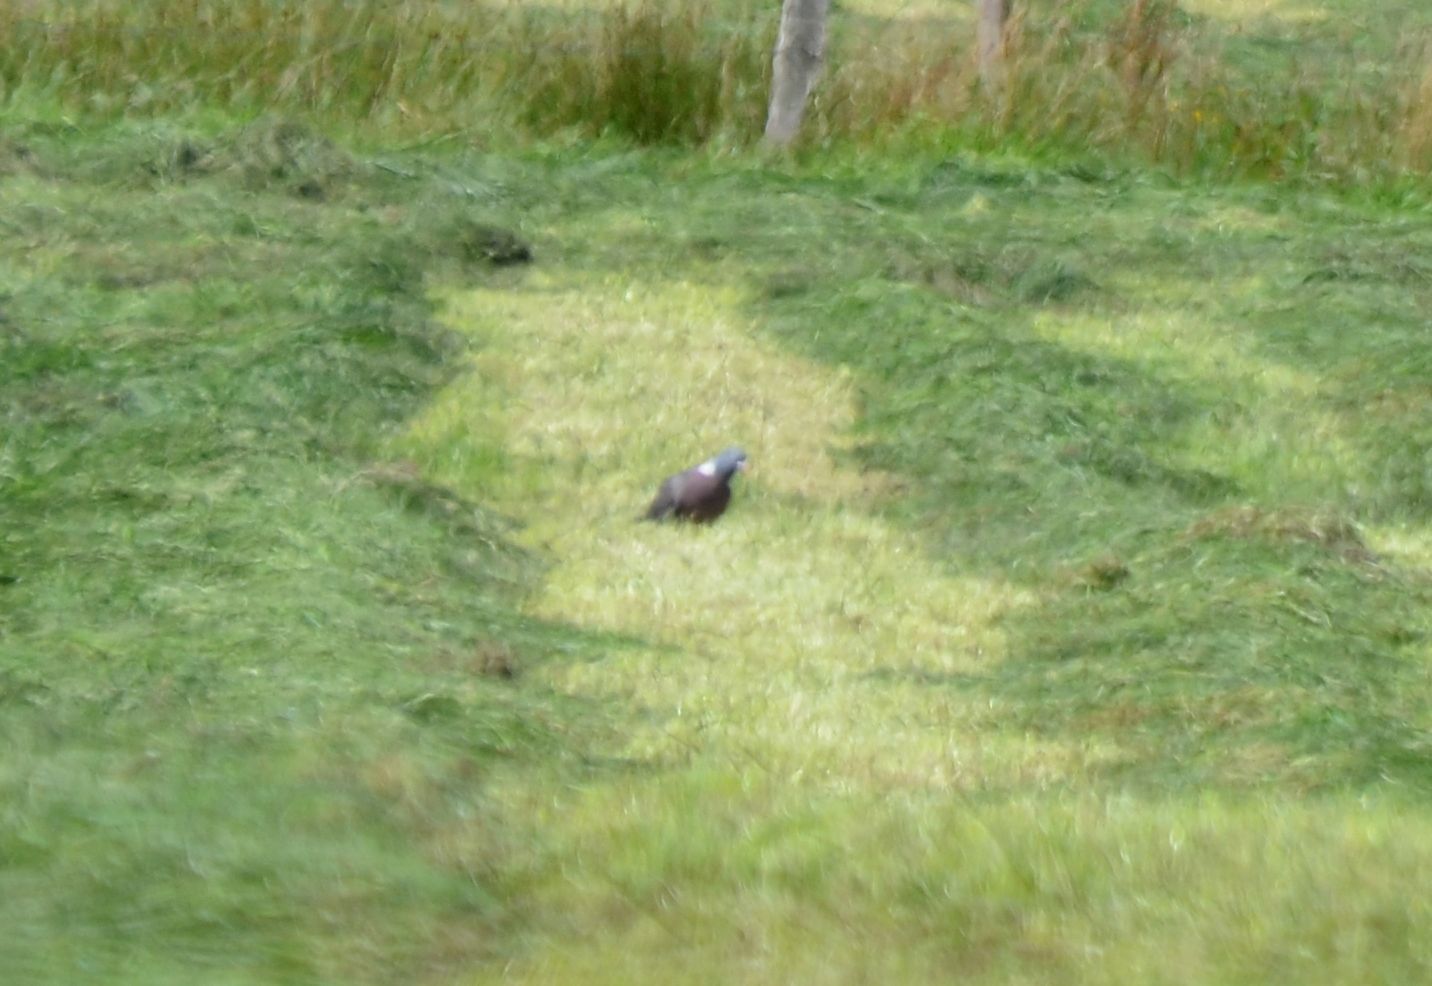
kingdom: Animalia
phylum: Chordata
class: Aves
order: Columbiformes
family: Columbidae
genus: Columba
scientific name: Columba palumbus
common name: Common wood pigeon
